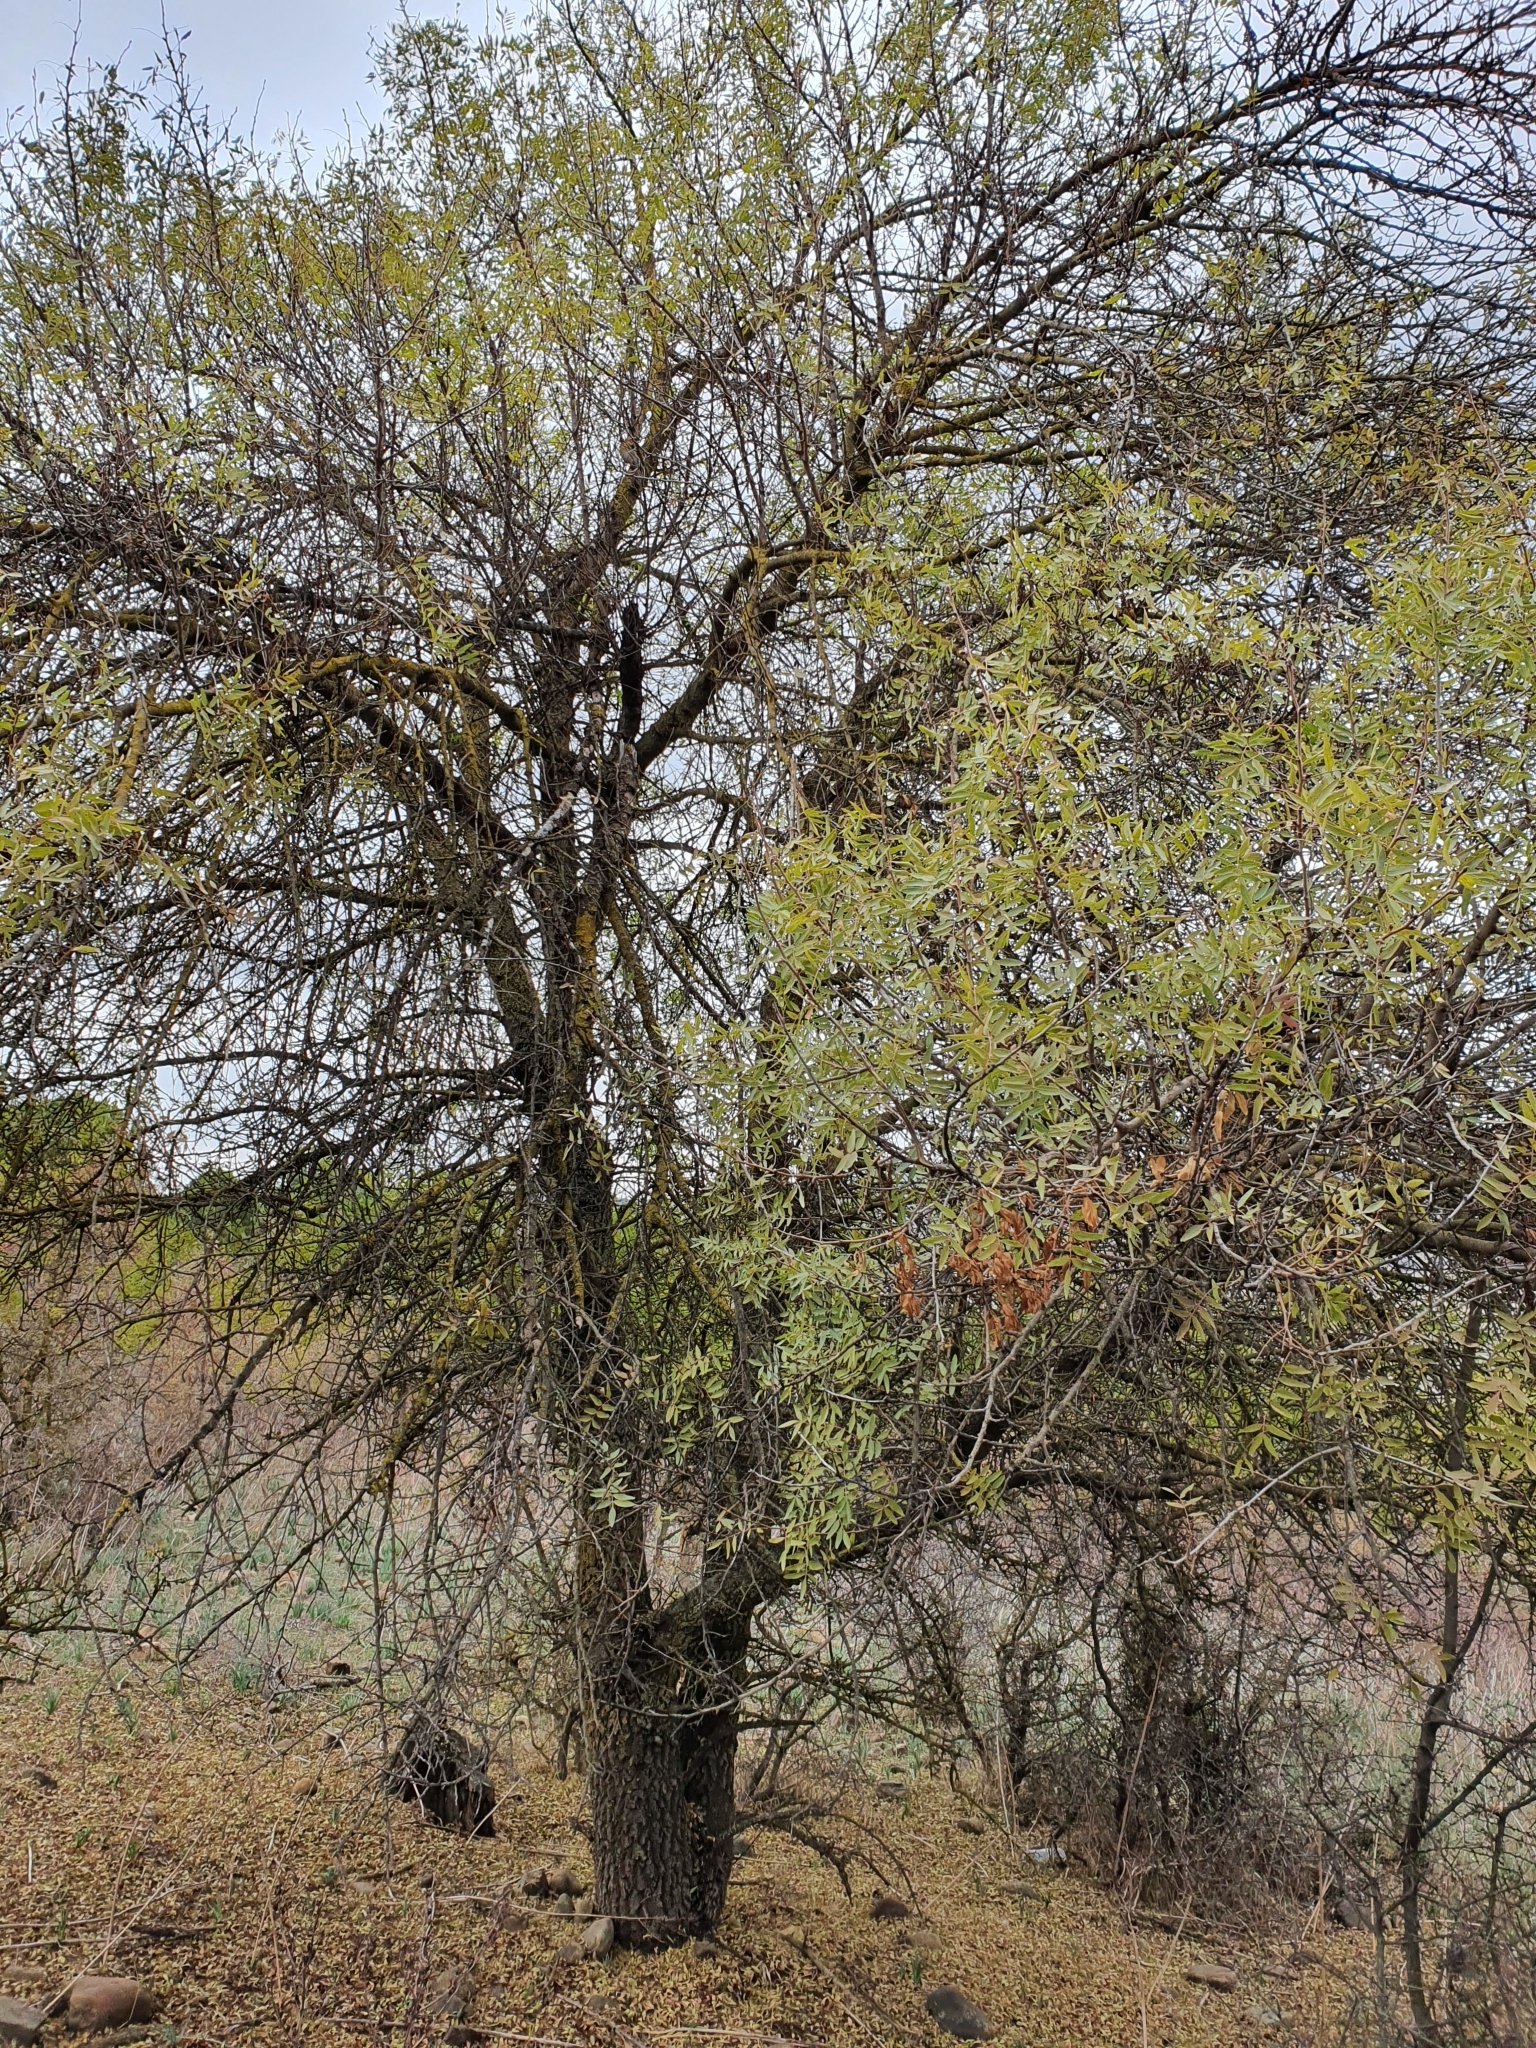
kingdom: Plantae
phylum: Tracheophyta
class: Magnoliopsida
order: Sapindales
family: Anacardiaceae
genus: Pistacia
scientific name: Pistacia atlantica
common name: Mt. atlas mastic tree
